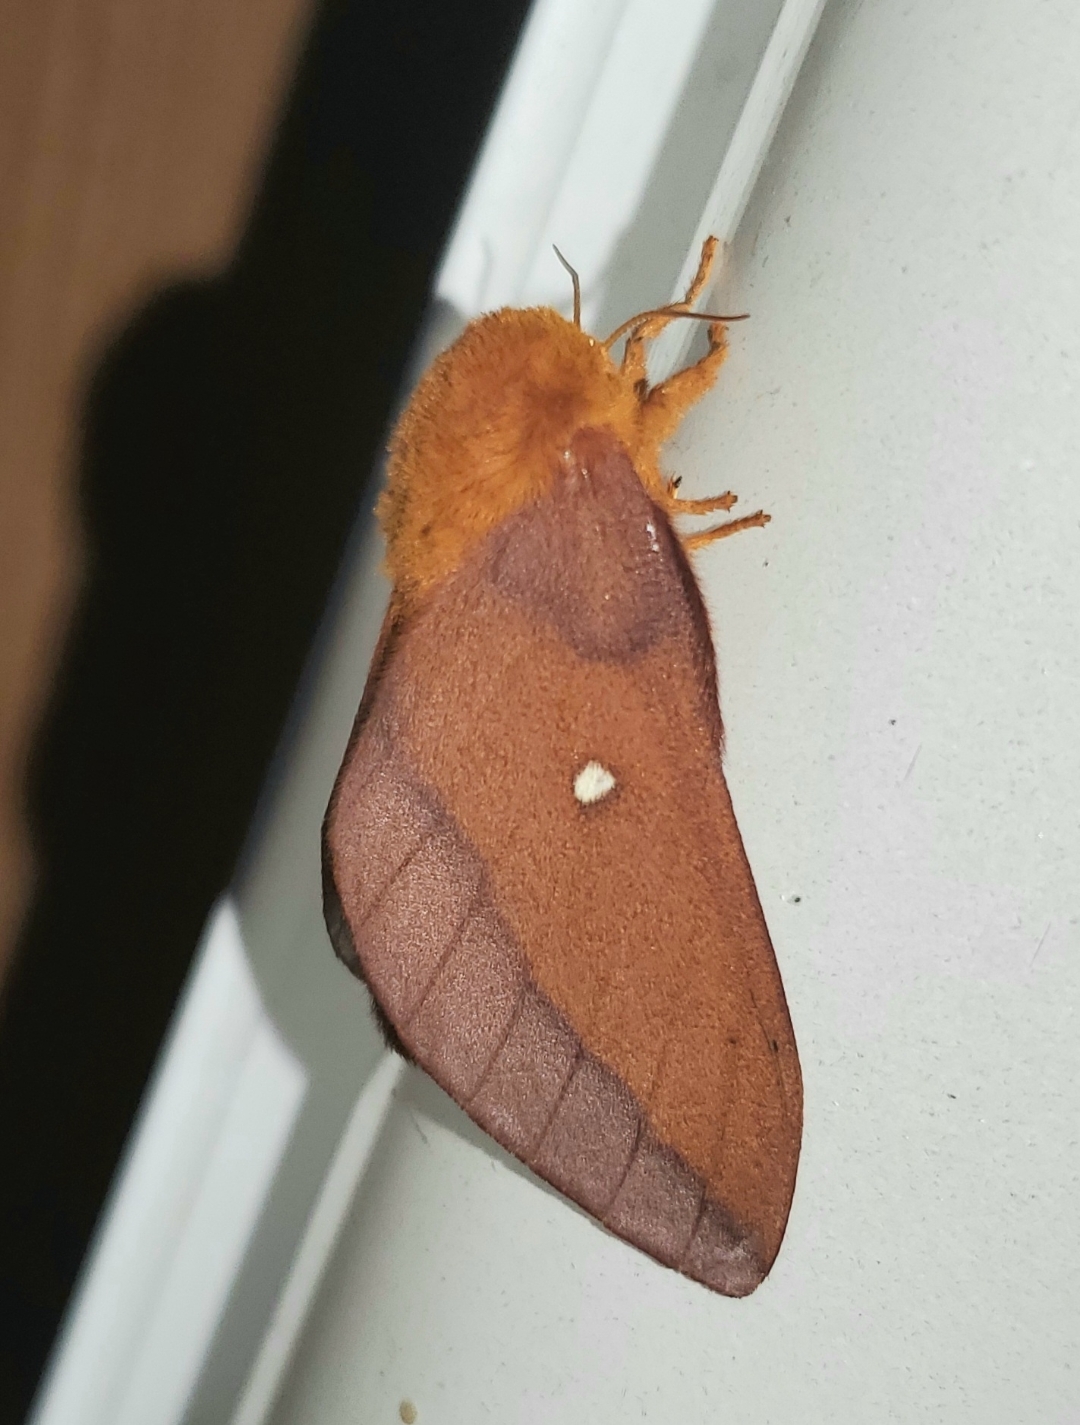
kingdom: Animalia
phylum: Arthropoda
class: Insecta
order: Lepidoptera
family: Saturniidae
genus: Anisota
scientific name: Anisota virginiensis
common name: Pink striped oakworm moth
